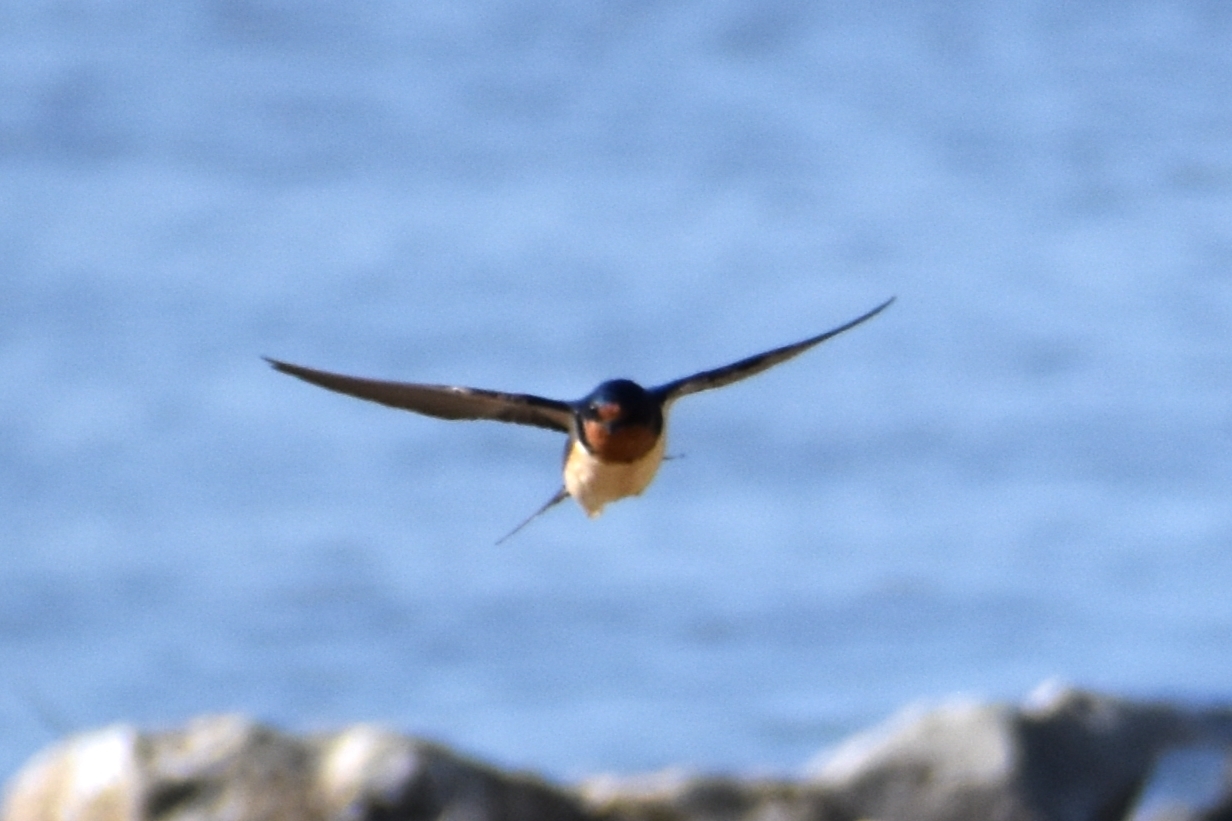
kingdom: Animalia
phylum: Chordata
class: Aves
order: Passeriformes
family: Hirundinidae
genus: Hirundo
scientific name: Hirundo rustica
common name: Barn swallow
